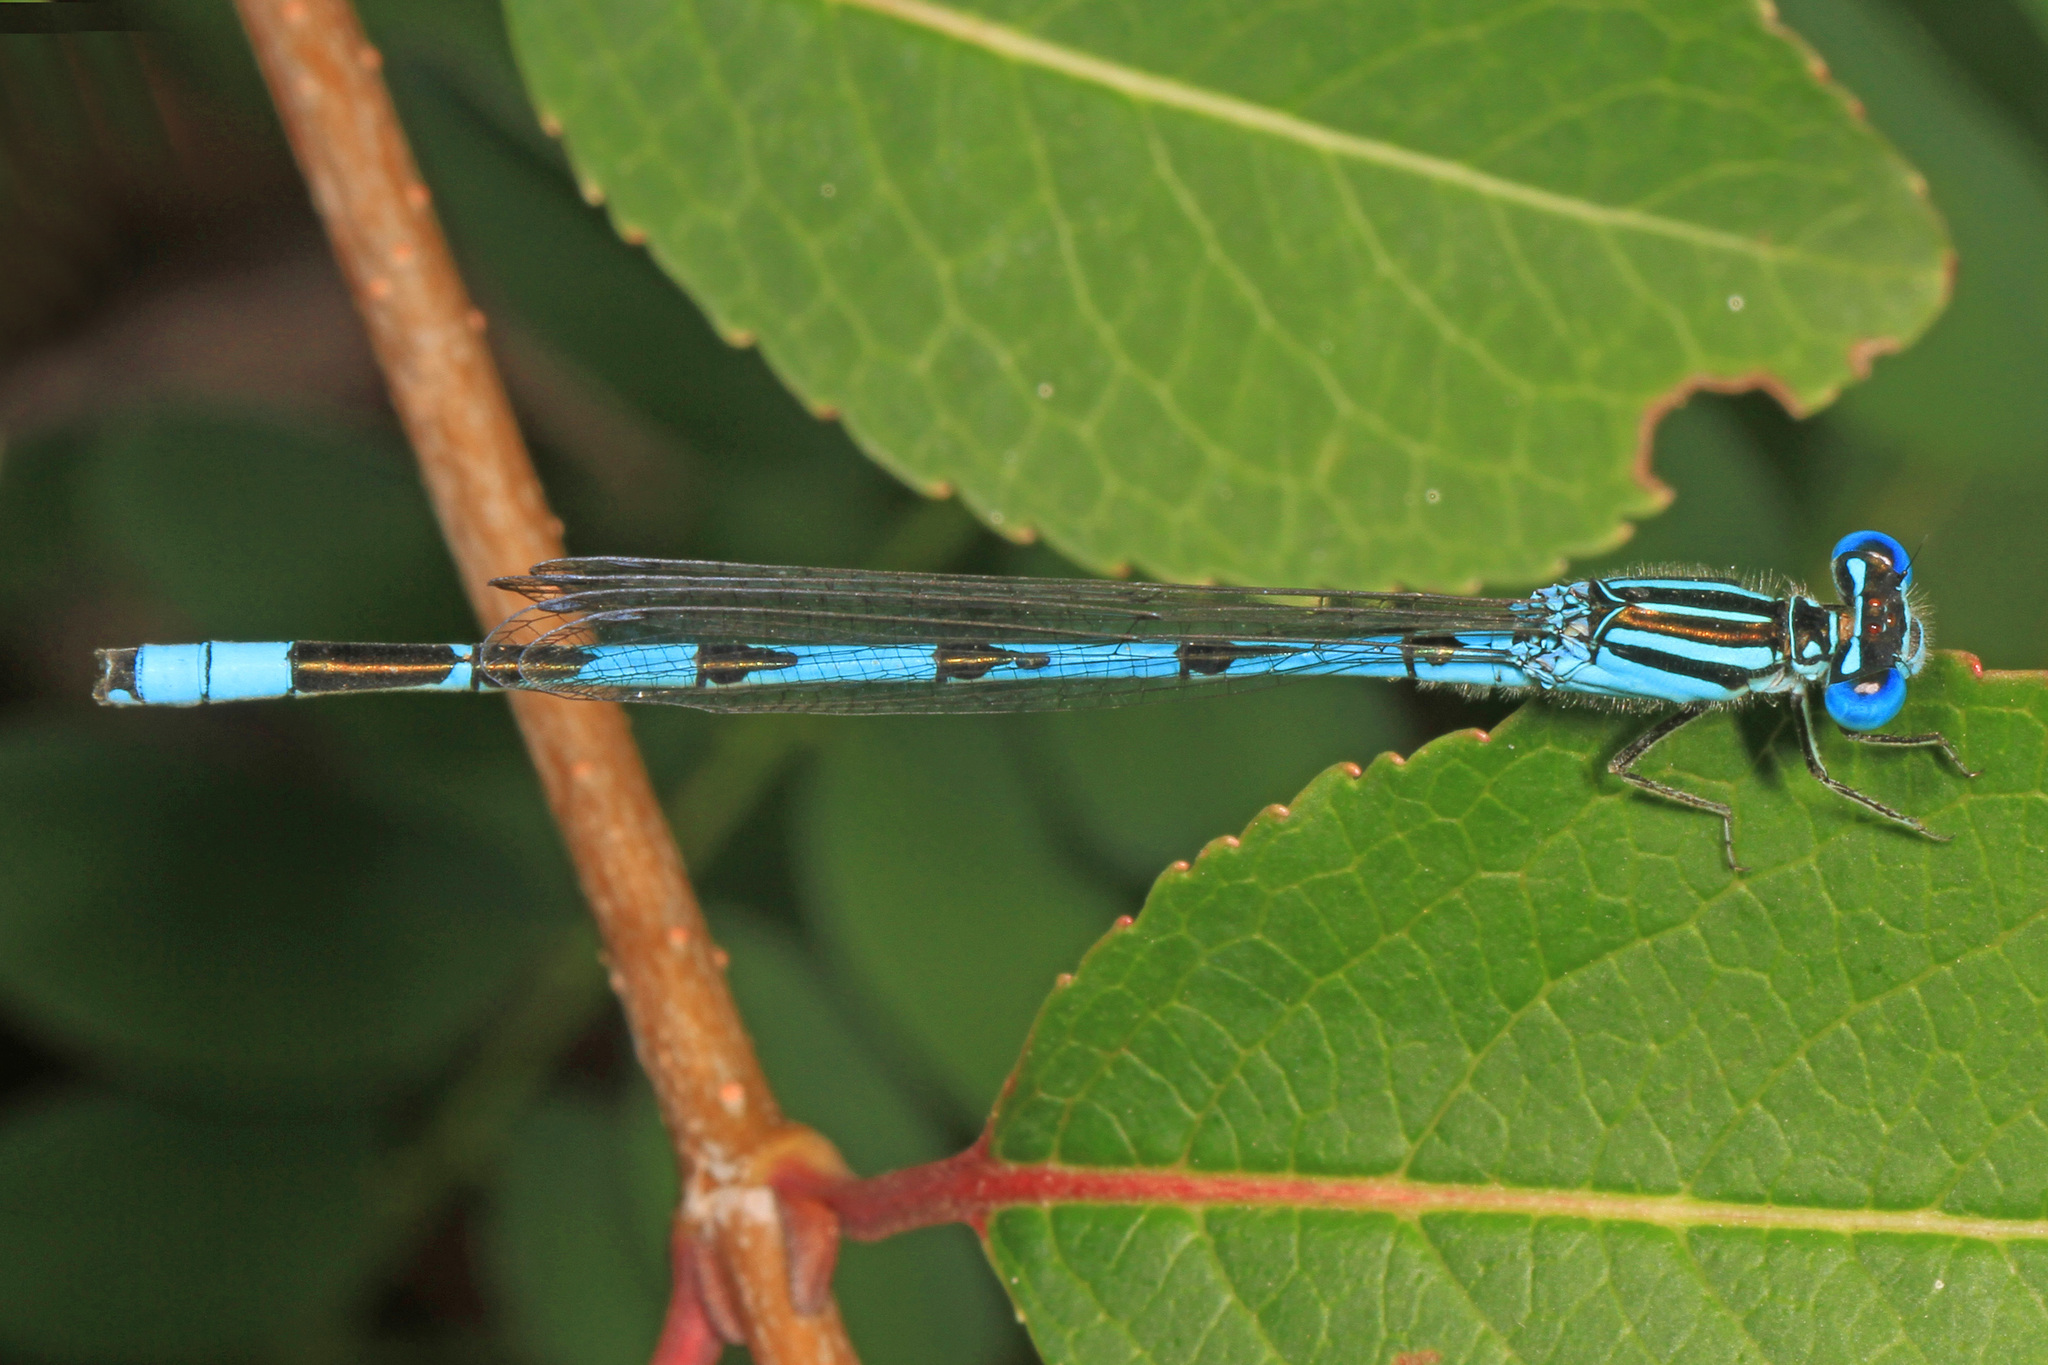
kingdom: Animalia
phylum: Arthropoda
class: Insecta
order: Odonata
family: Coenagrionidae
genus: Enallagma
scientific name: Enallagma durum
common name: Big bluet
